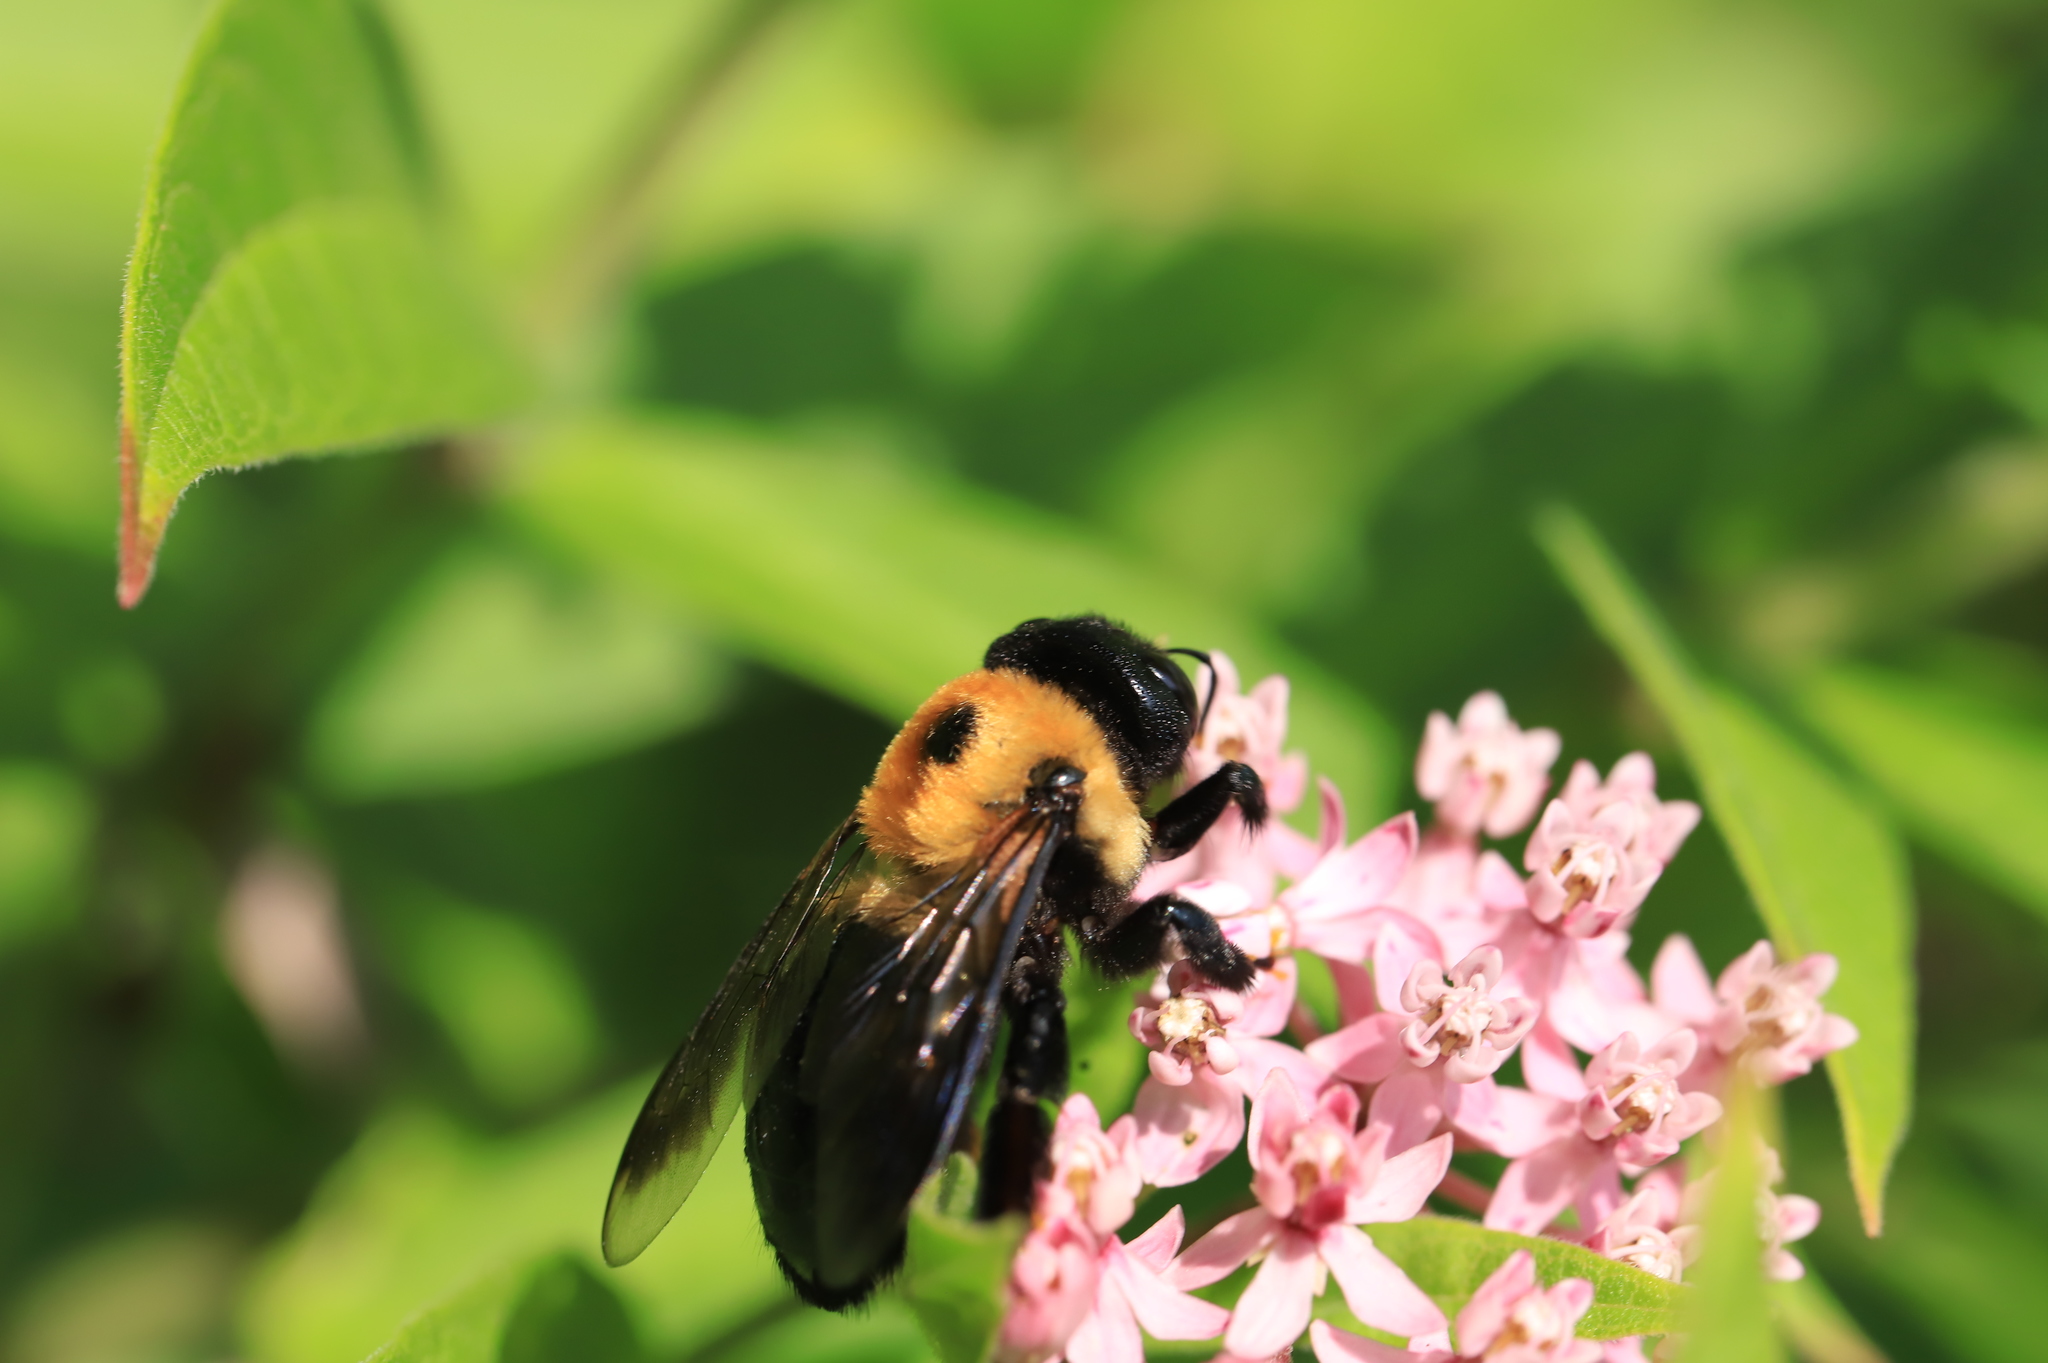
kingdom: Animalia
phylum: Arthropoda
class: Insecta
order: Hymenoptera
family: Apidae
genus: Xylocopa
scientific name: Xylocopa virginica
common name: Carpenter bee
